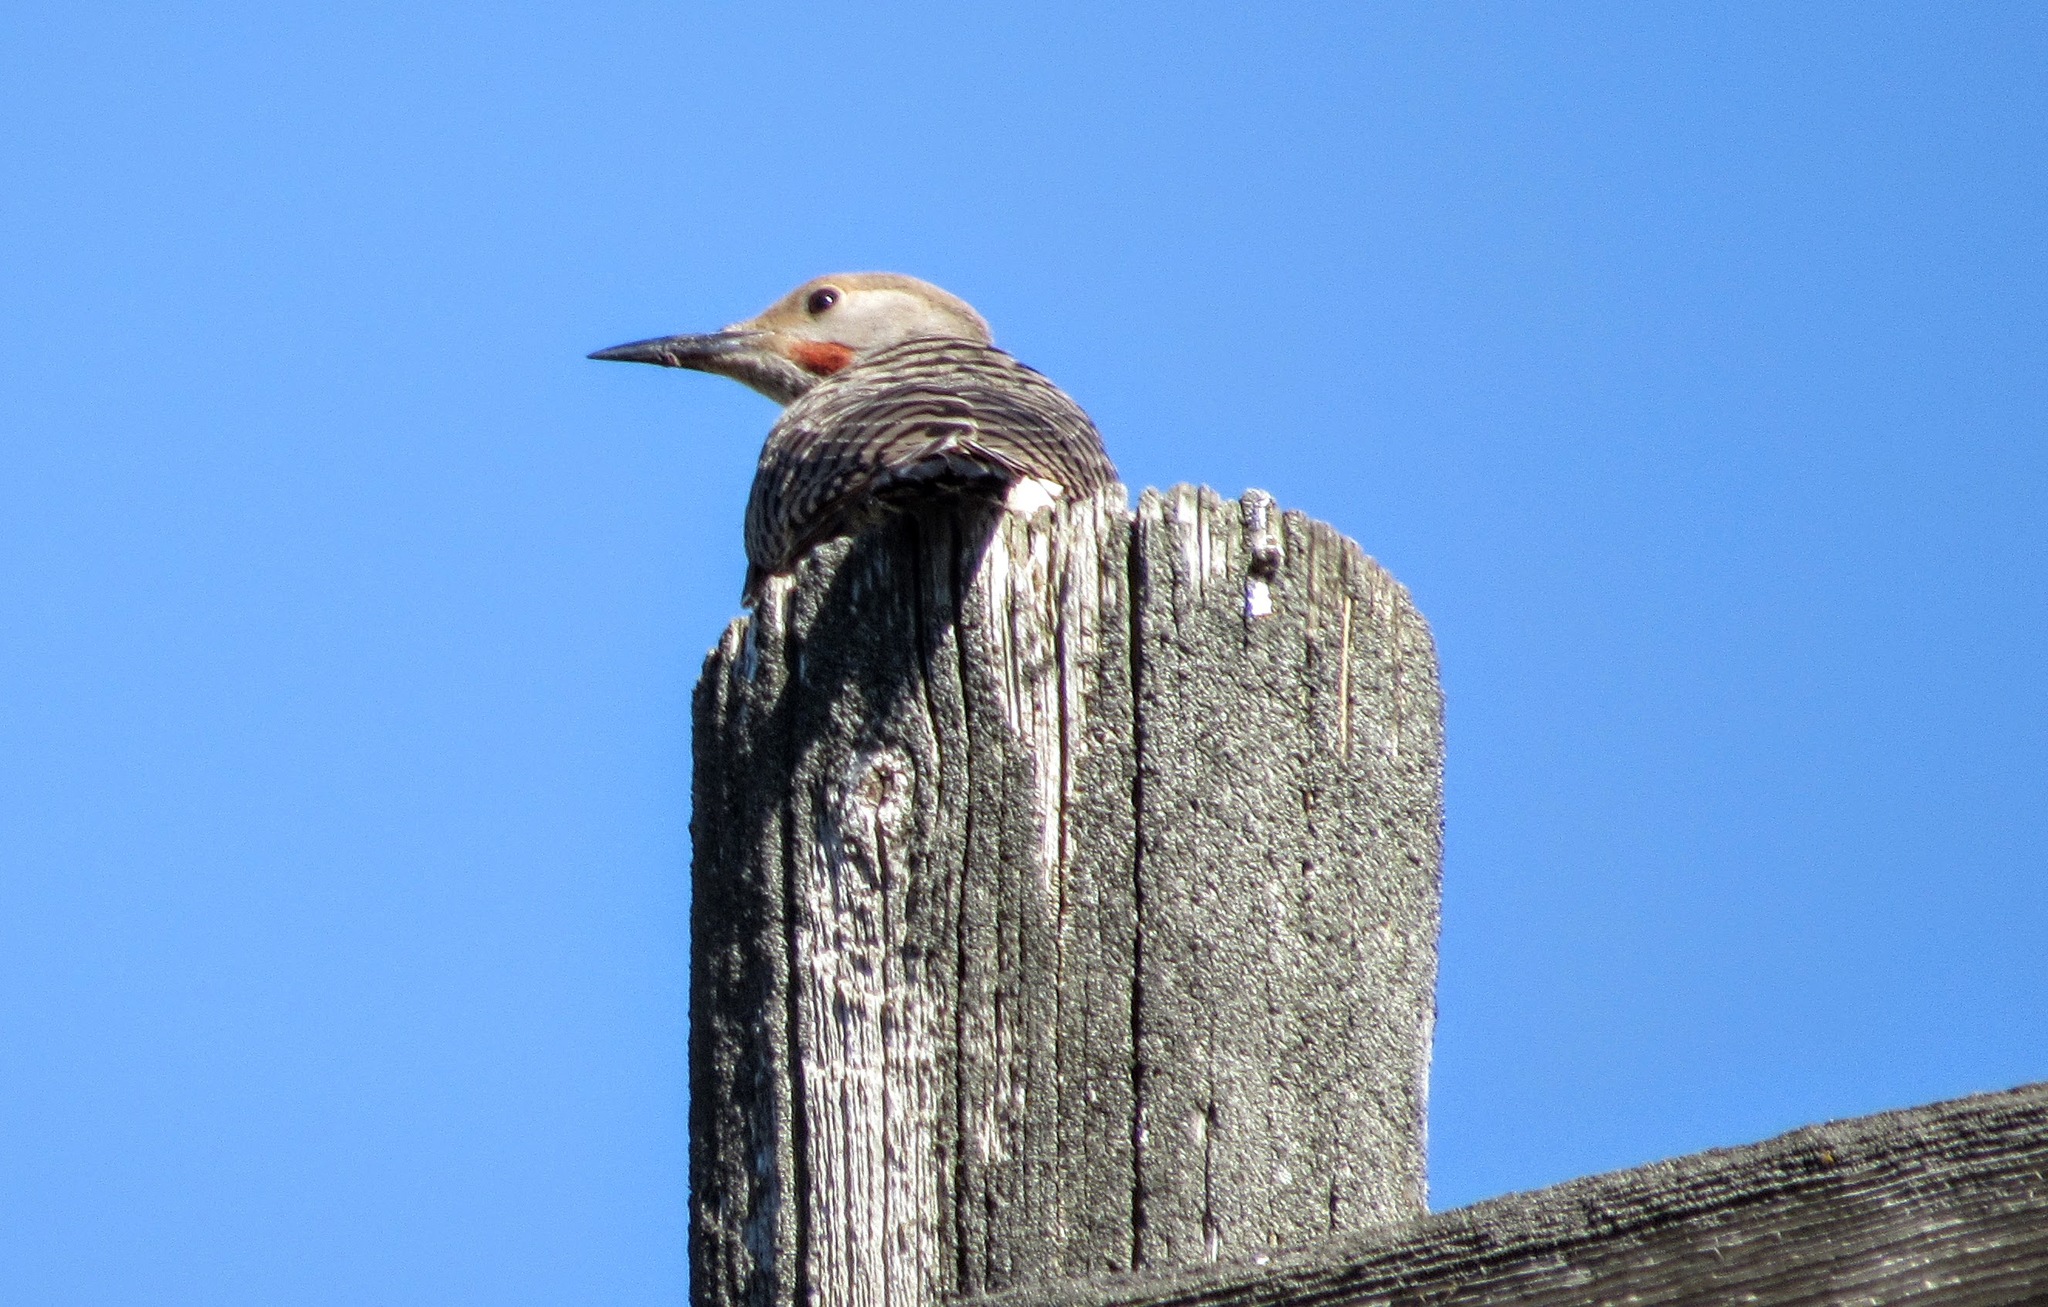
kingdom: Animalia
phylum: Chordata
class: Aves
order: Piciformes
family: Picidae
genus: Colaptes
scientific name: Colaptes auratus
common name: Northern flicker
